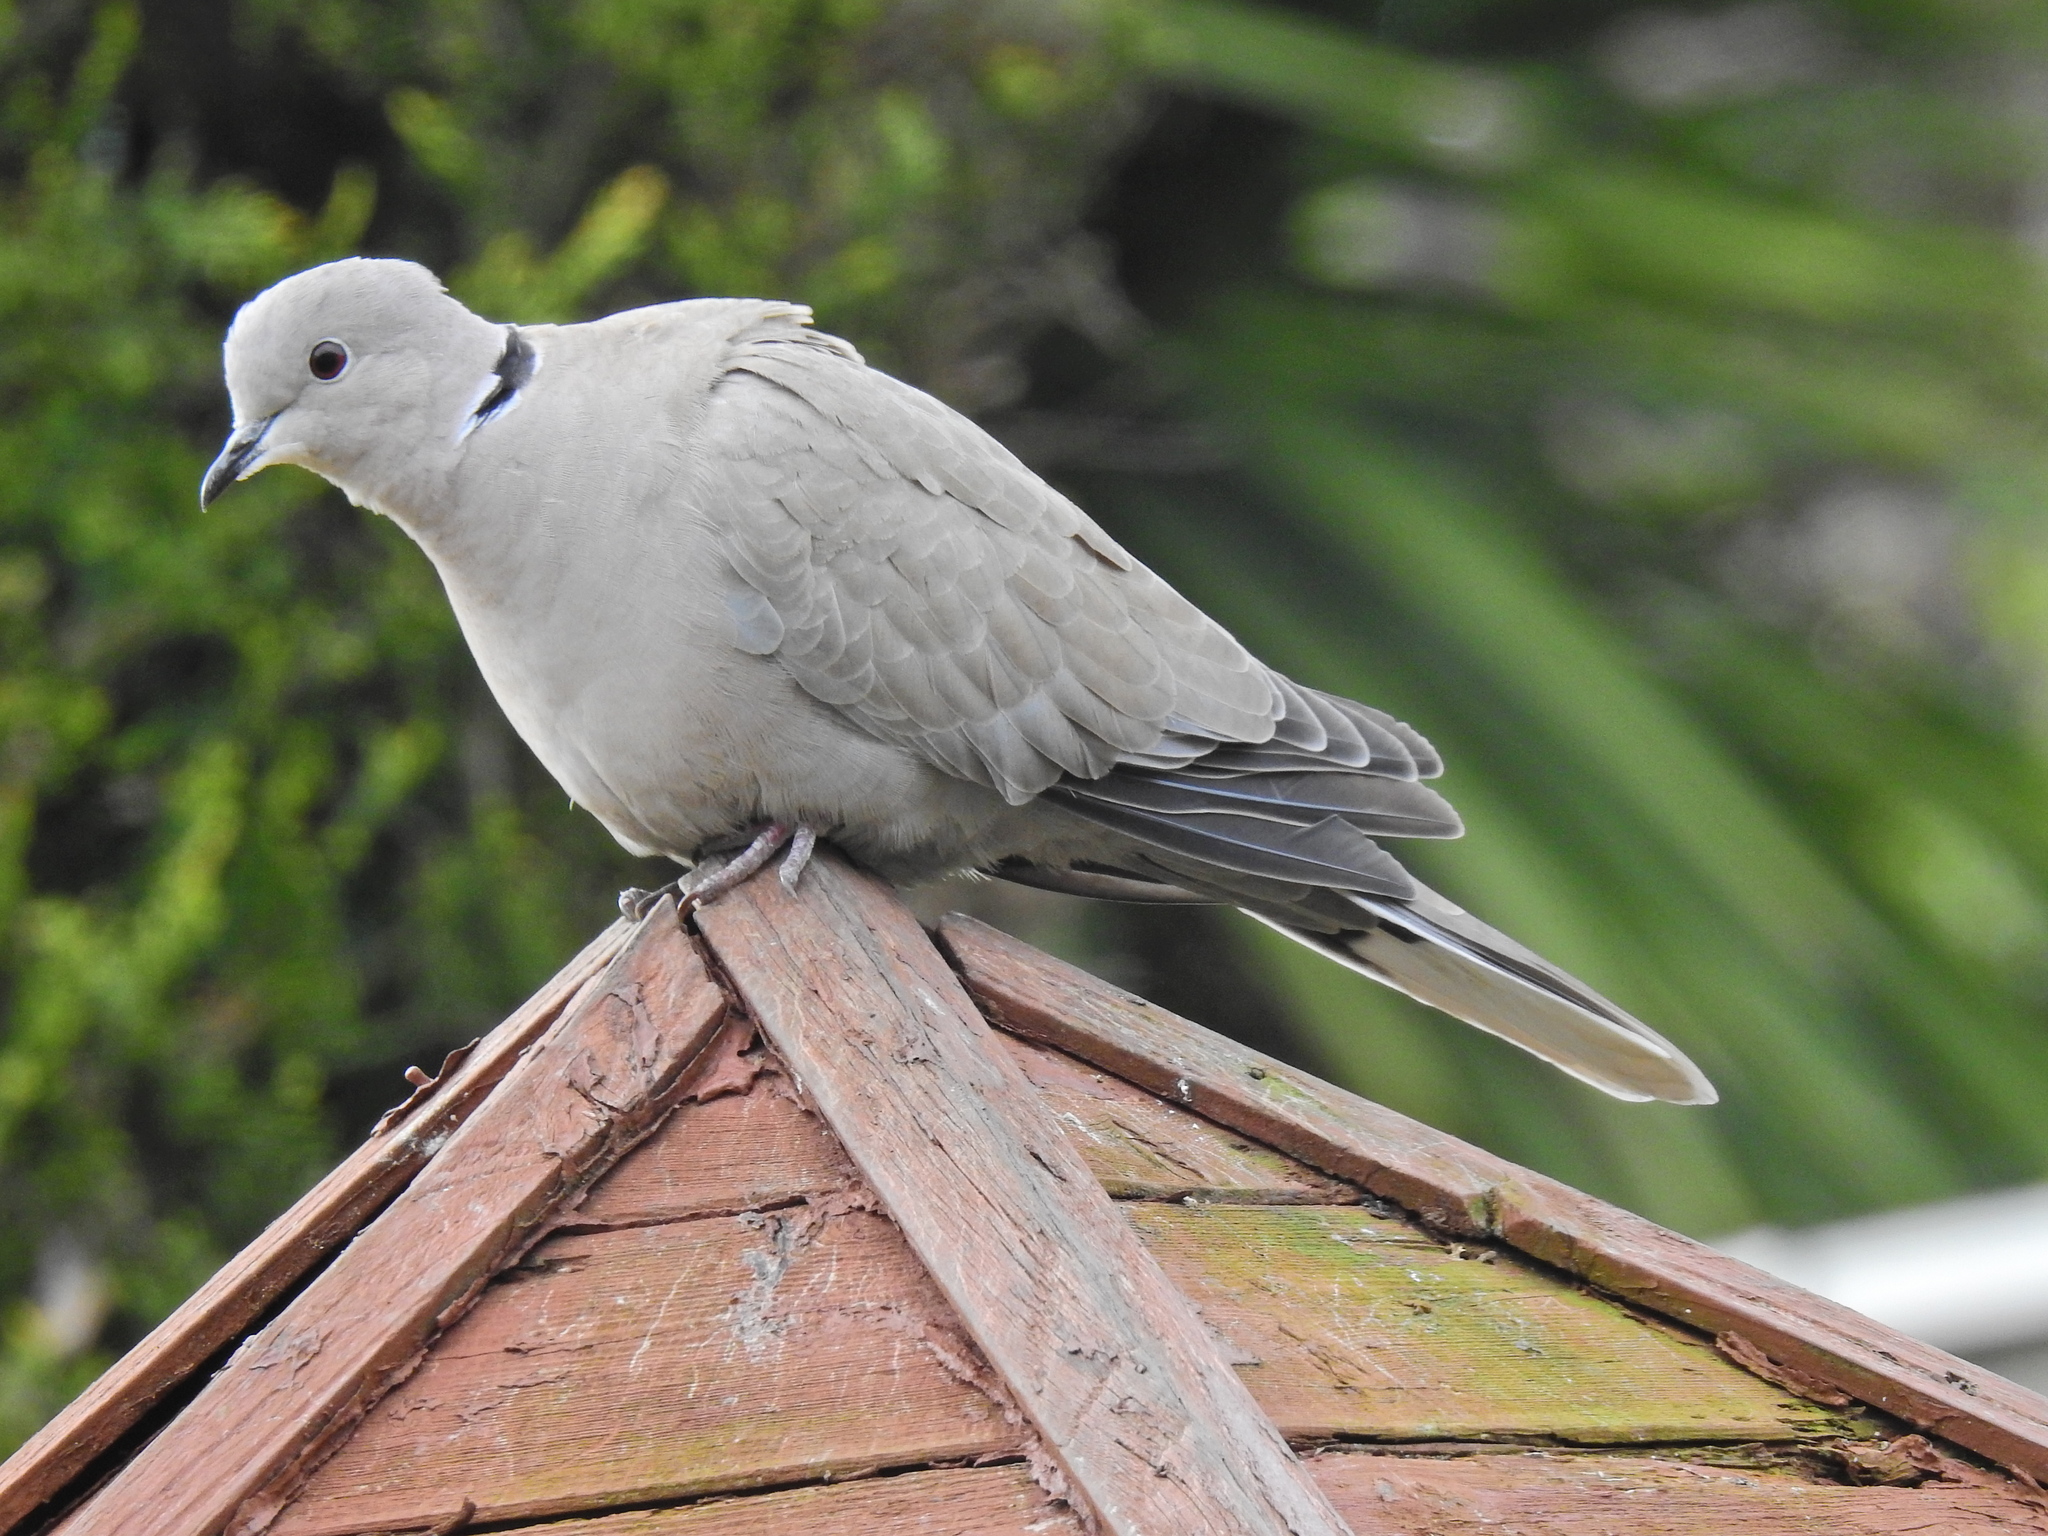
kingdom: Animalia
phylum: Chordata
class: Aves
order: Columbiformes
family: Columbidae
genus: Streptopelia
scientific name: Streptopelia decaocto
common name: Eurasian collared dove
